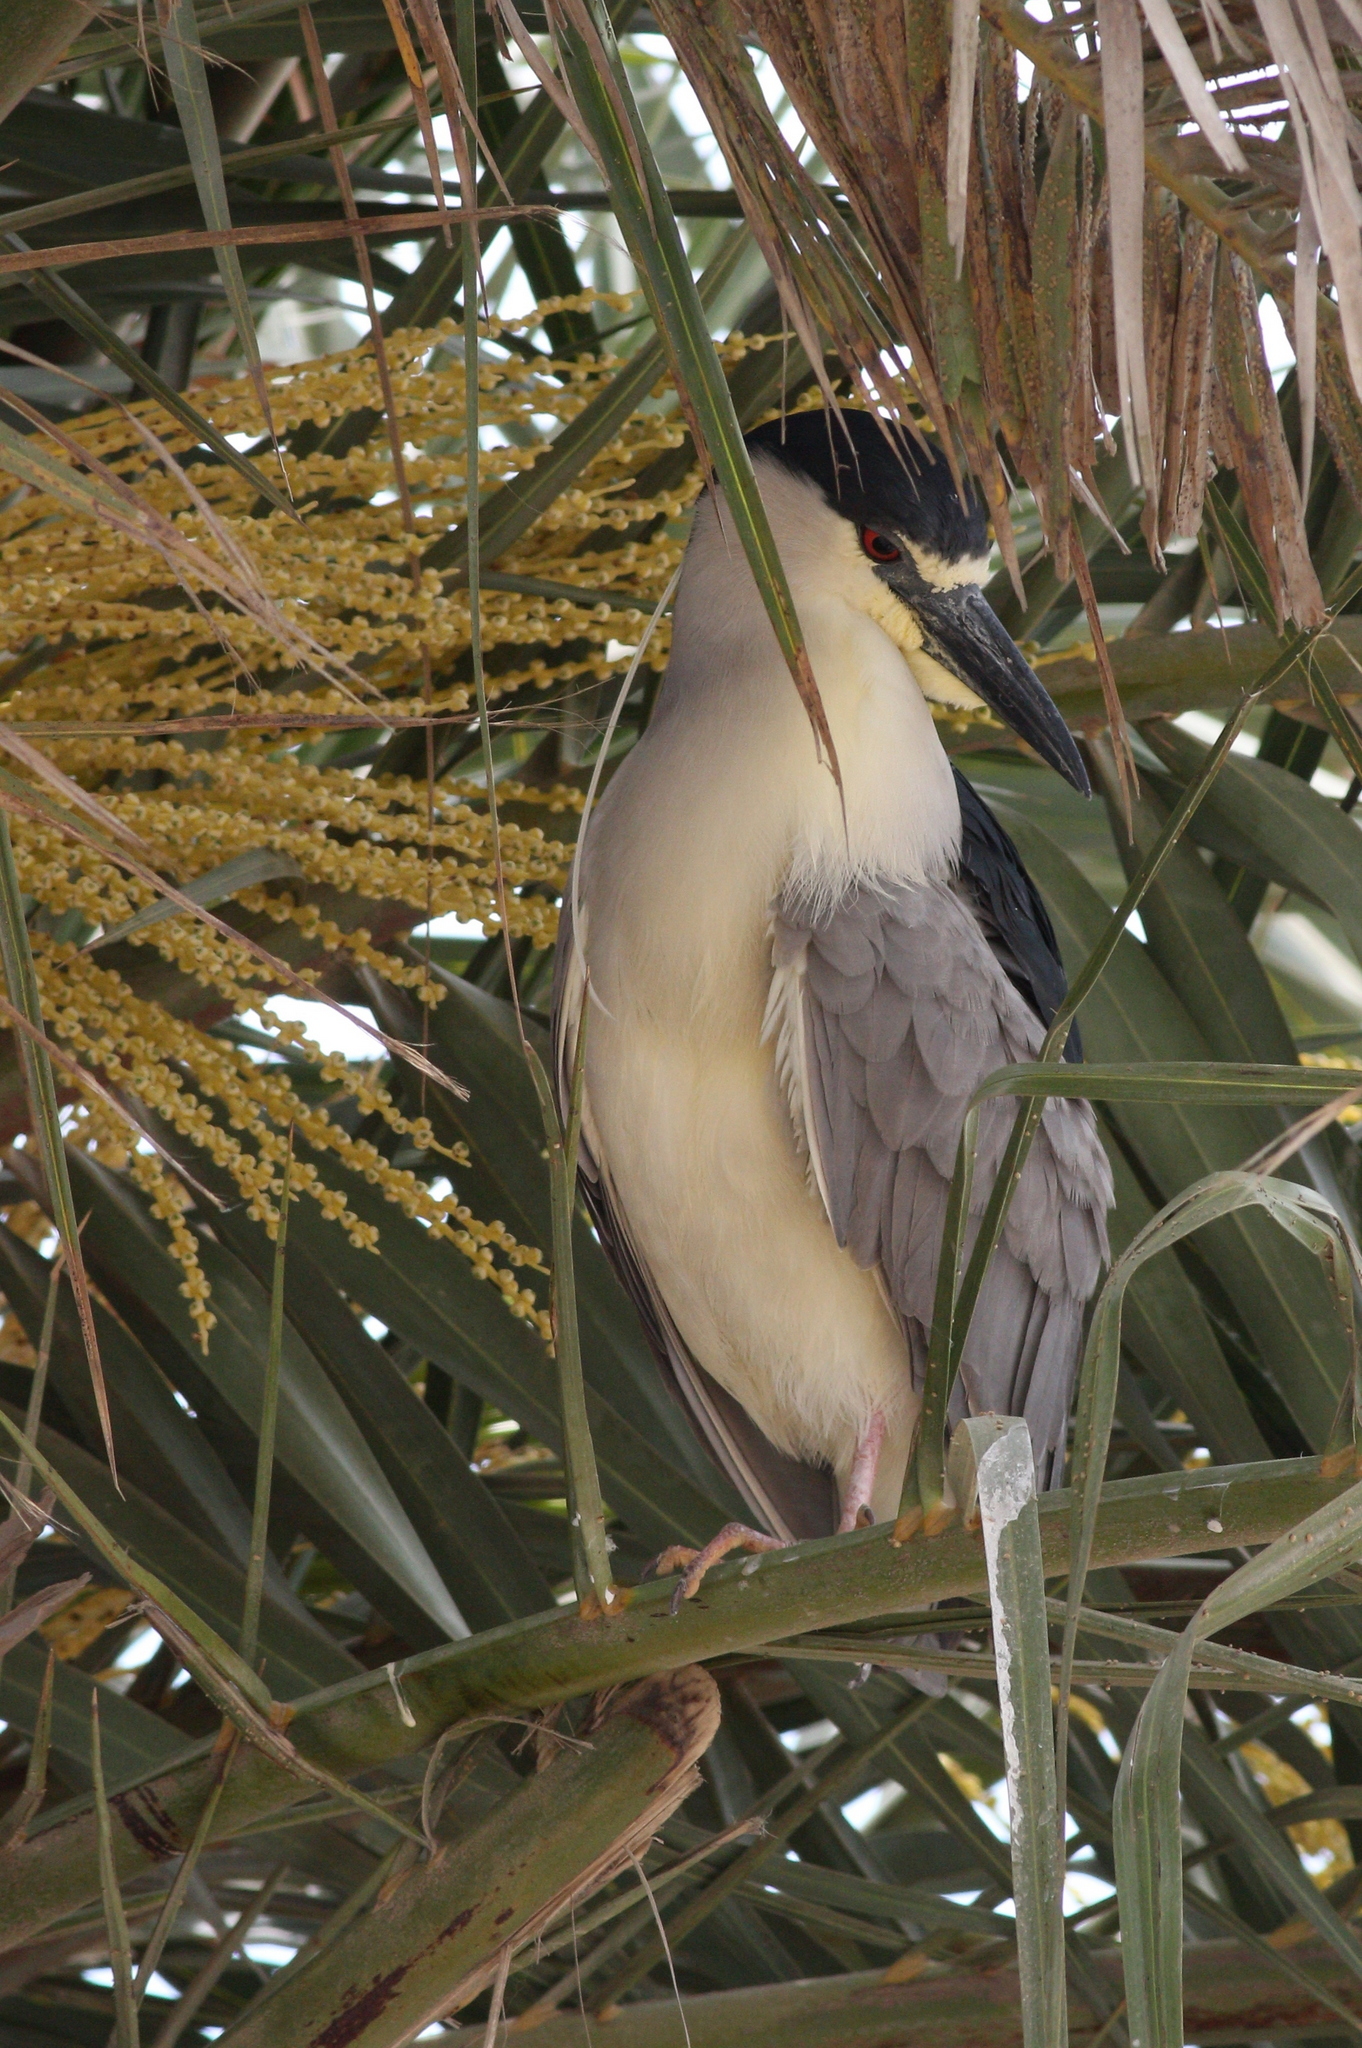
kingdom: Animalia
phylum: Chordata
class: Aves
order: Pelecaniformes
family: Ardeidae
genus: Nycticorax
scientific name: Nycticorax nycticorax
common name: Black-crowned night heron
